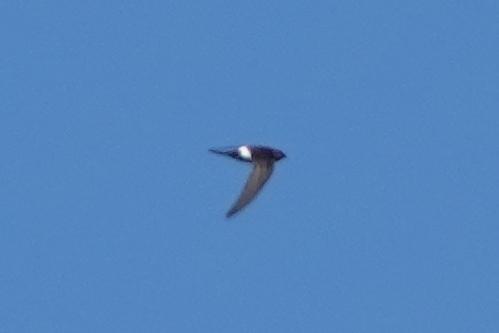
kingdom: Animalia
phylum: Chordata
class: Aves
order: Apodiformes
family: Apodidae
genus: Apus
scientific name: Apus pacificus
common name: Pacific swift
